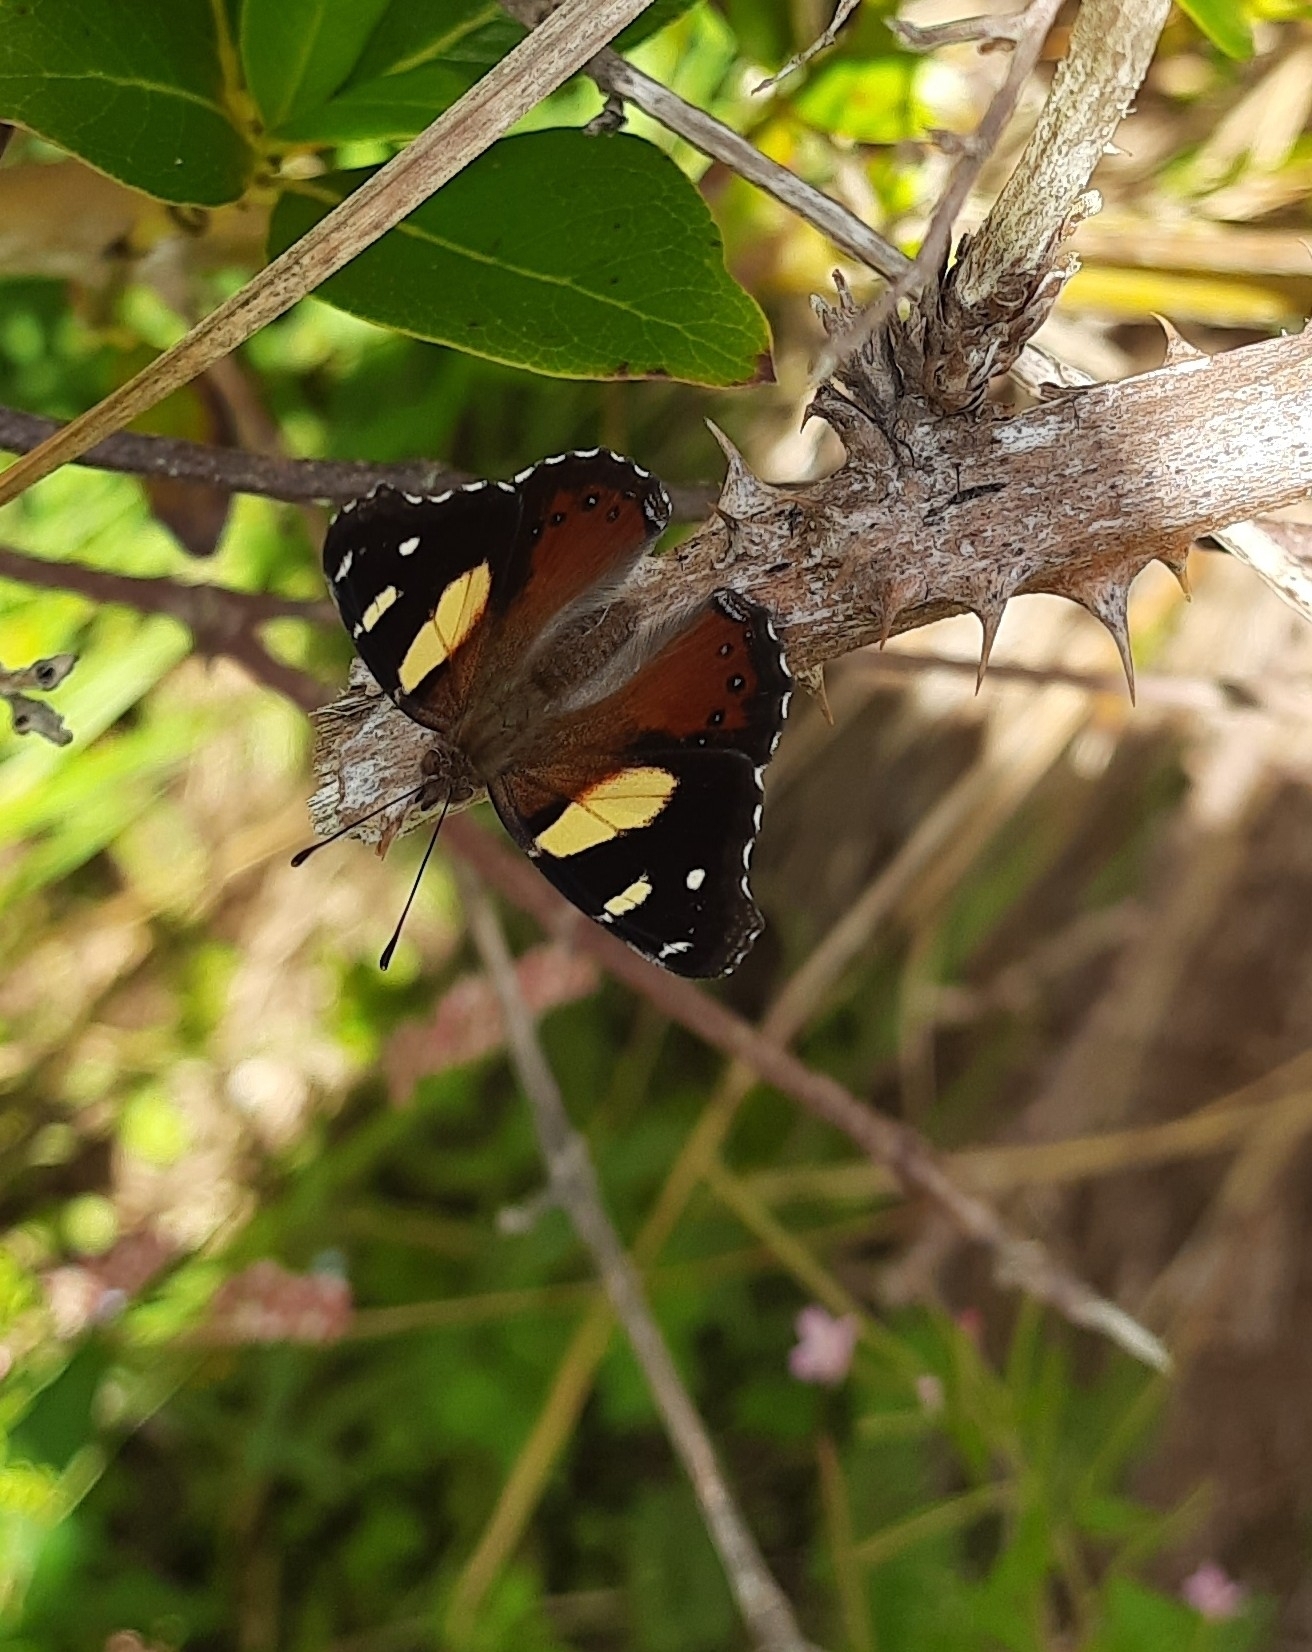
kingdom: Animalia
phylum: Arthropoda
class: Insecta
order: Lepidoptera
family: Nymphalidae
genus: Vanessa
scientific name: Vanessa itea
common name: Yellow admiral
